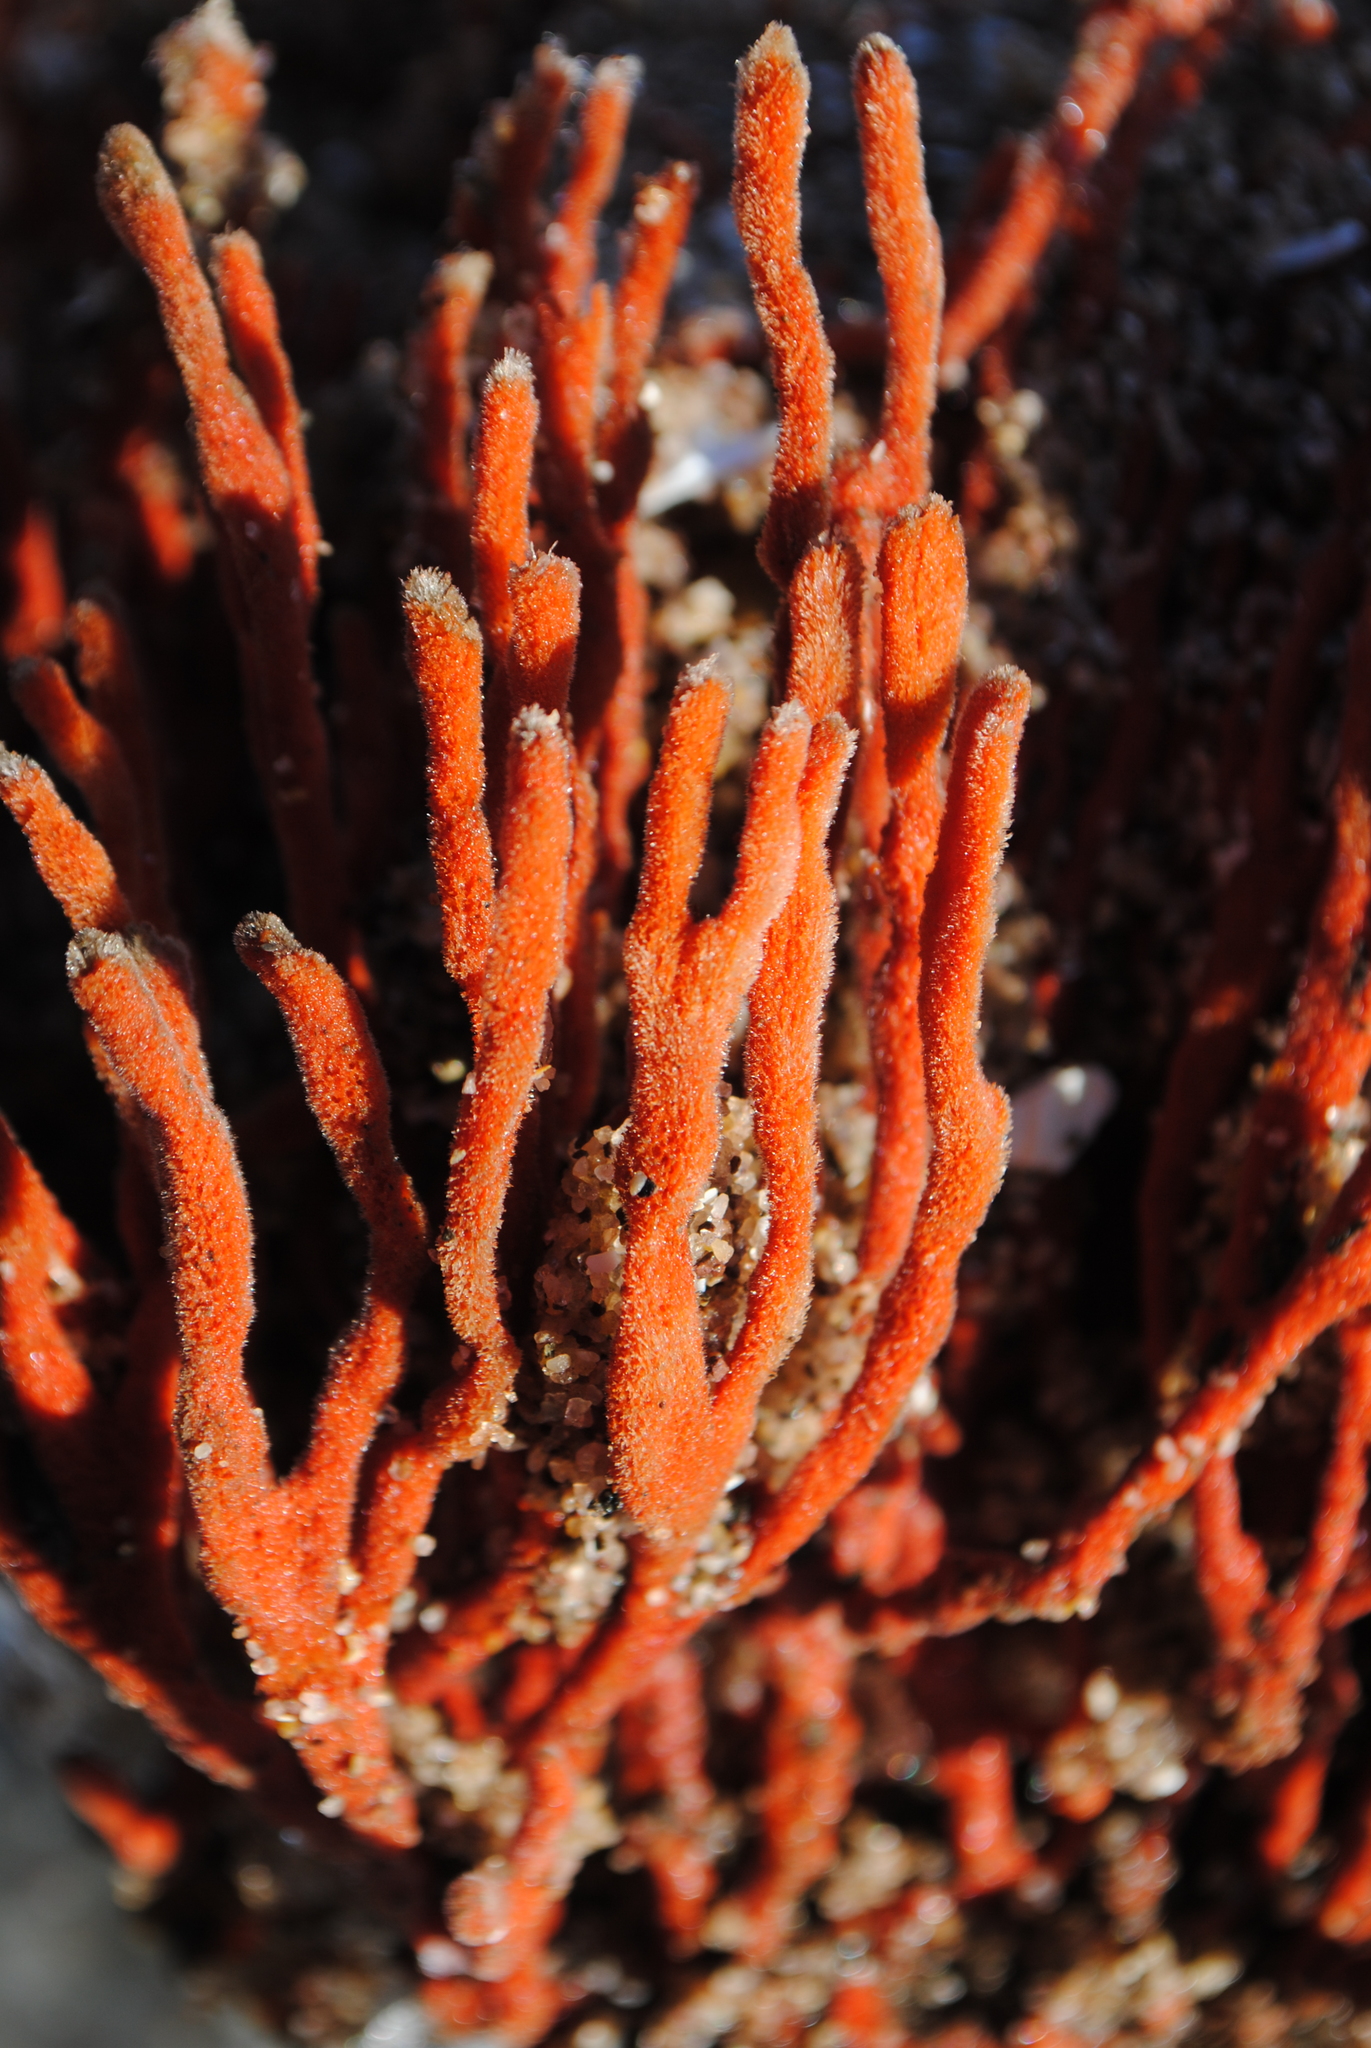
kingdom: Animalia
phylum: Porifera
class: Demospongiae
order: Poecilosclerida
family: Microcionidae
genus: Clathria
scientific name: Clathria prolifera
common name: Red beard sponge
